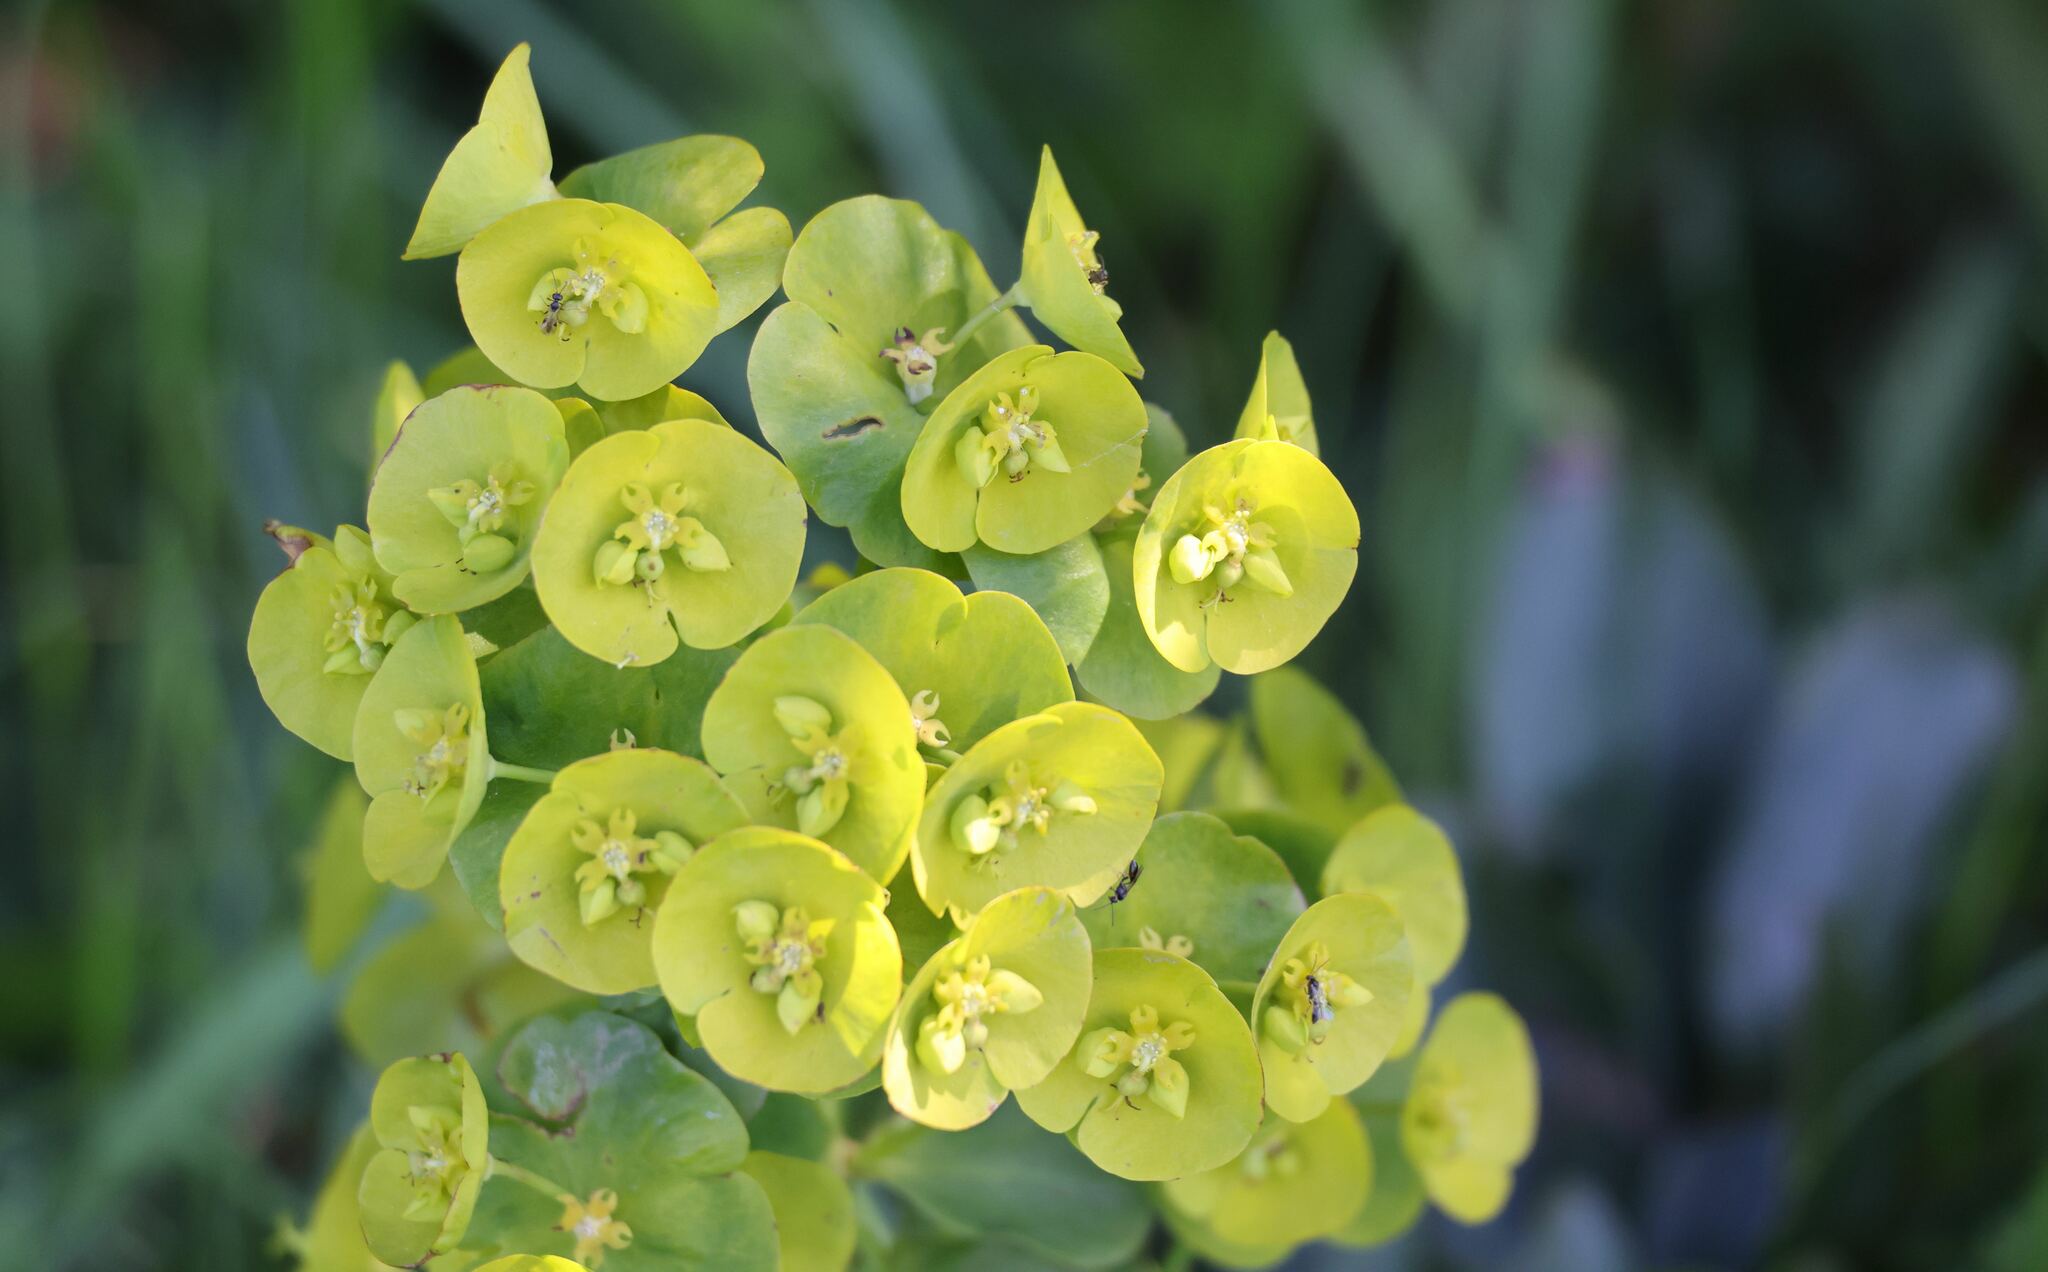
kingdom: Plantae
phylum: Tracheophyta
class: Magnoliopsida
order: Malpighiales
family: Euphorbiaceae
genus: Euphorbia
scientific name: Euphorbia amygdaloides
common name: Wood spurge
